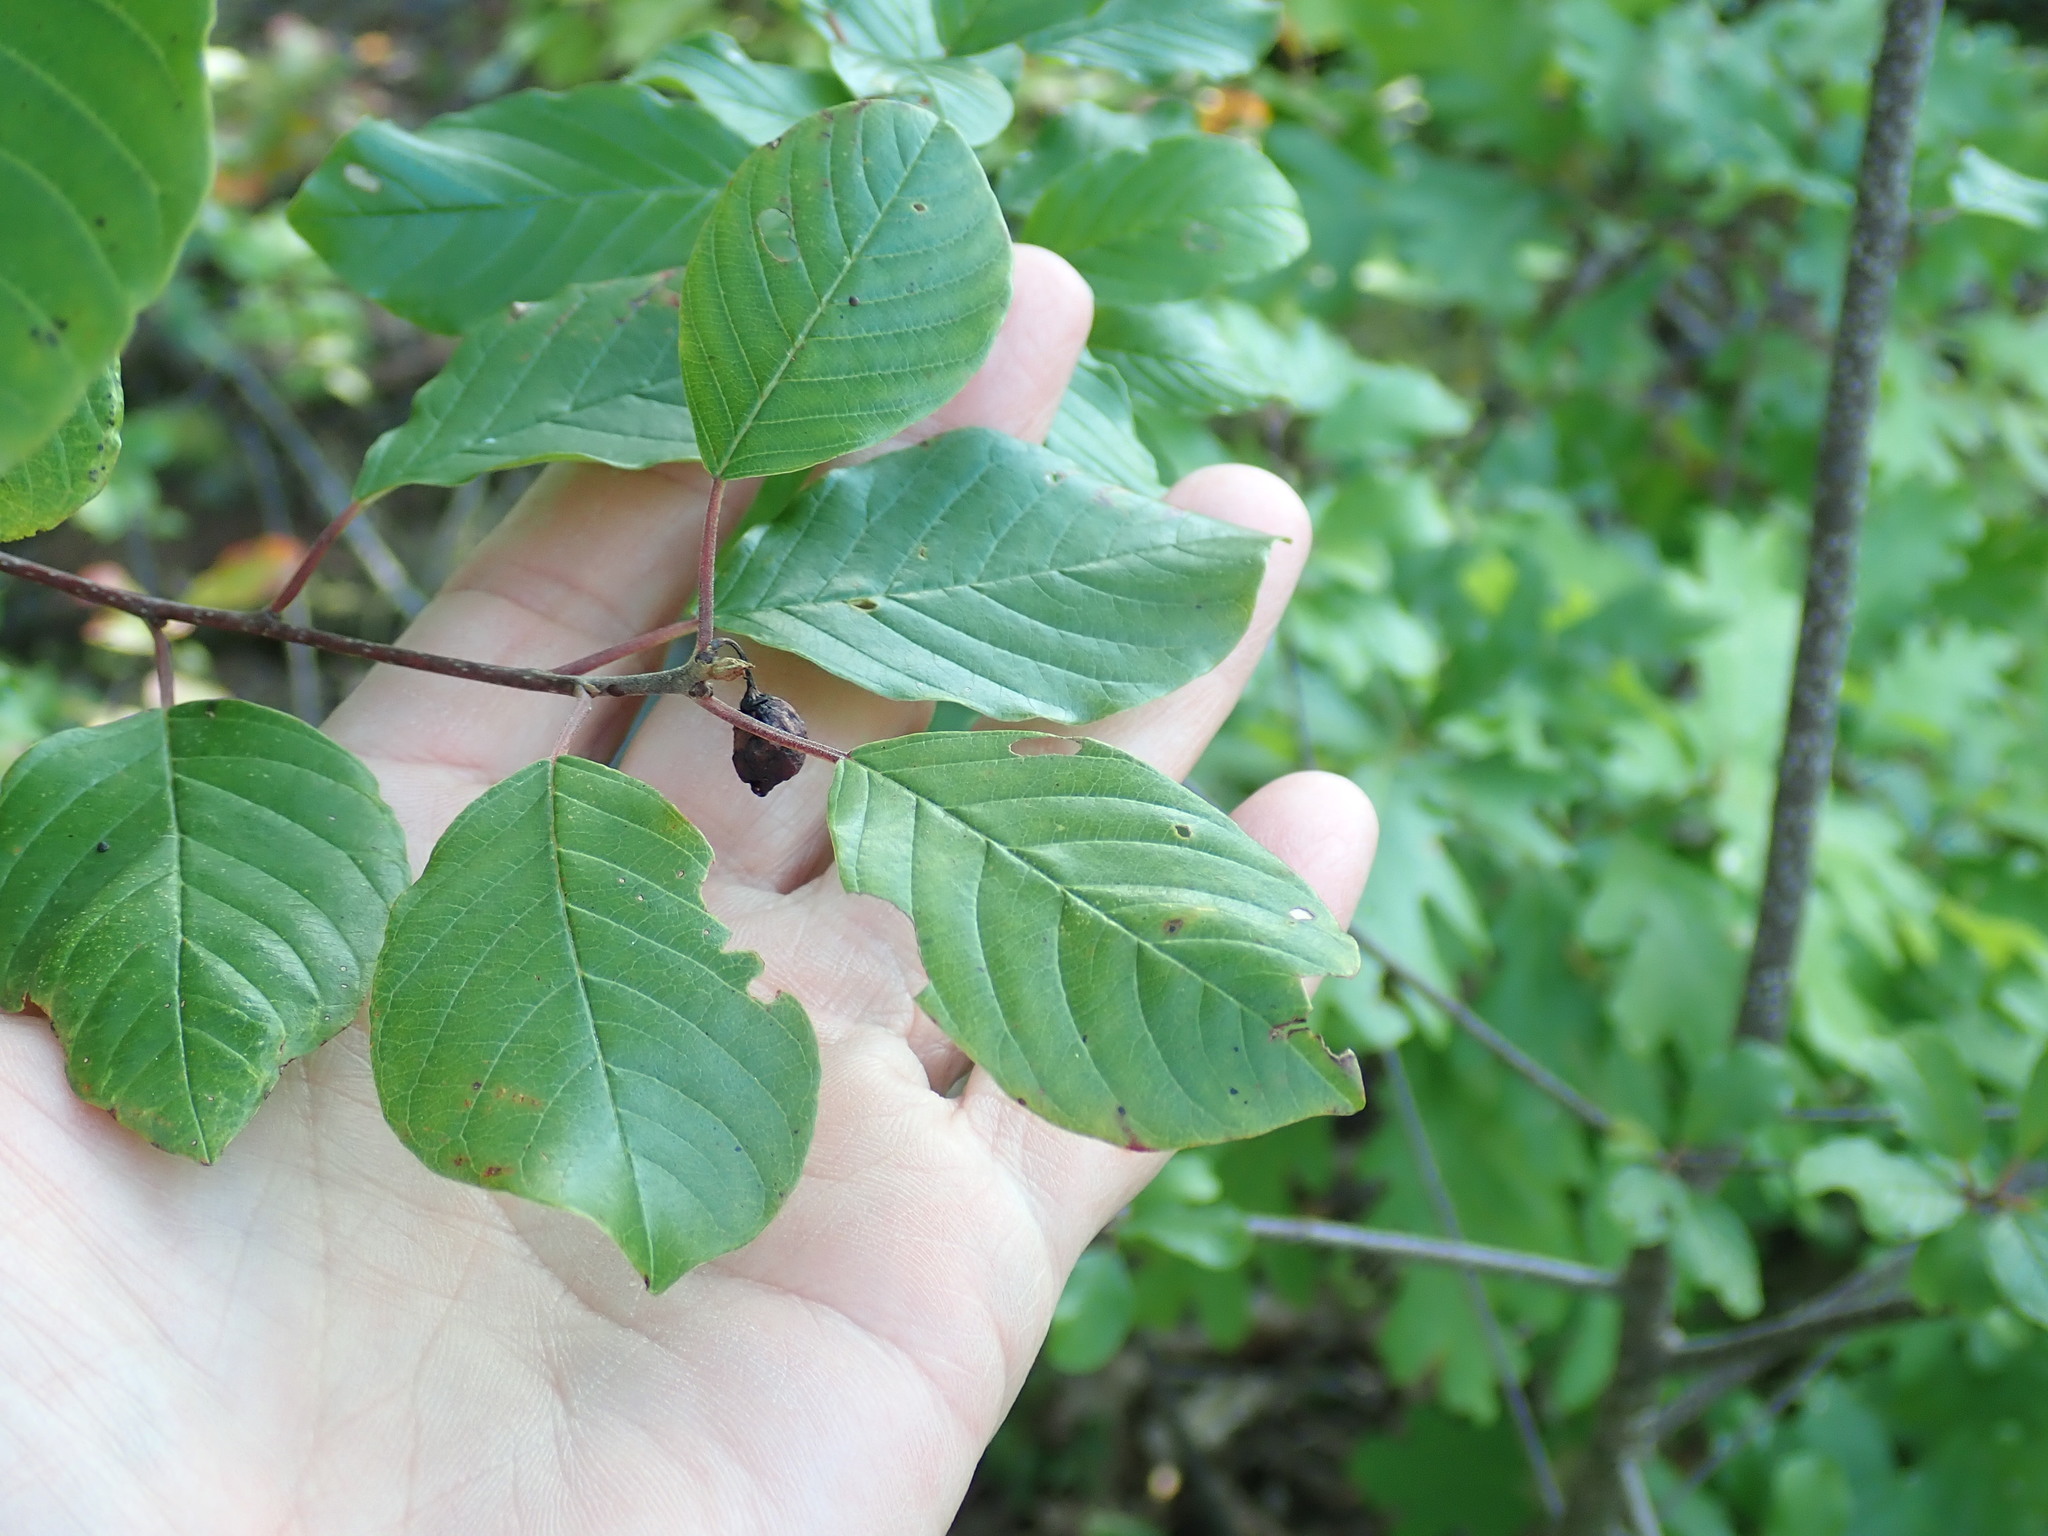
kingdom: Plantae
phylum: Tracheophyta
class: Magnoliopsida
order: Rosales
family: Rhamnaceae
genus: Frangula
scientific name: Frangula alnus
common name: Alder buckthorn
